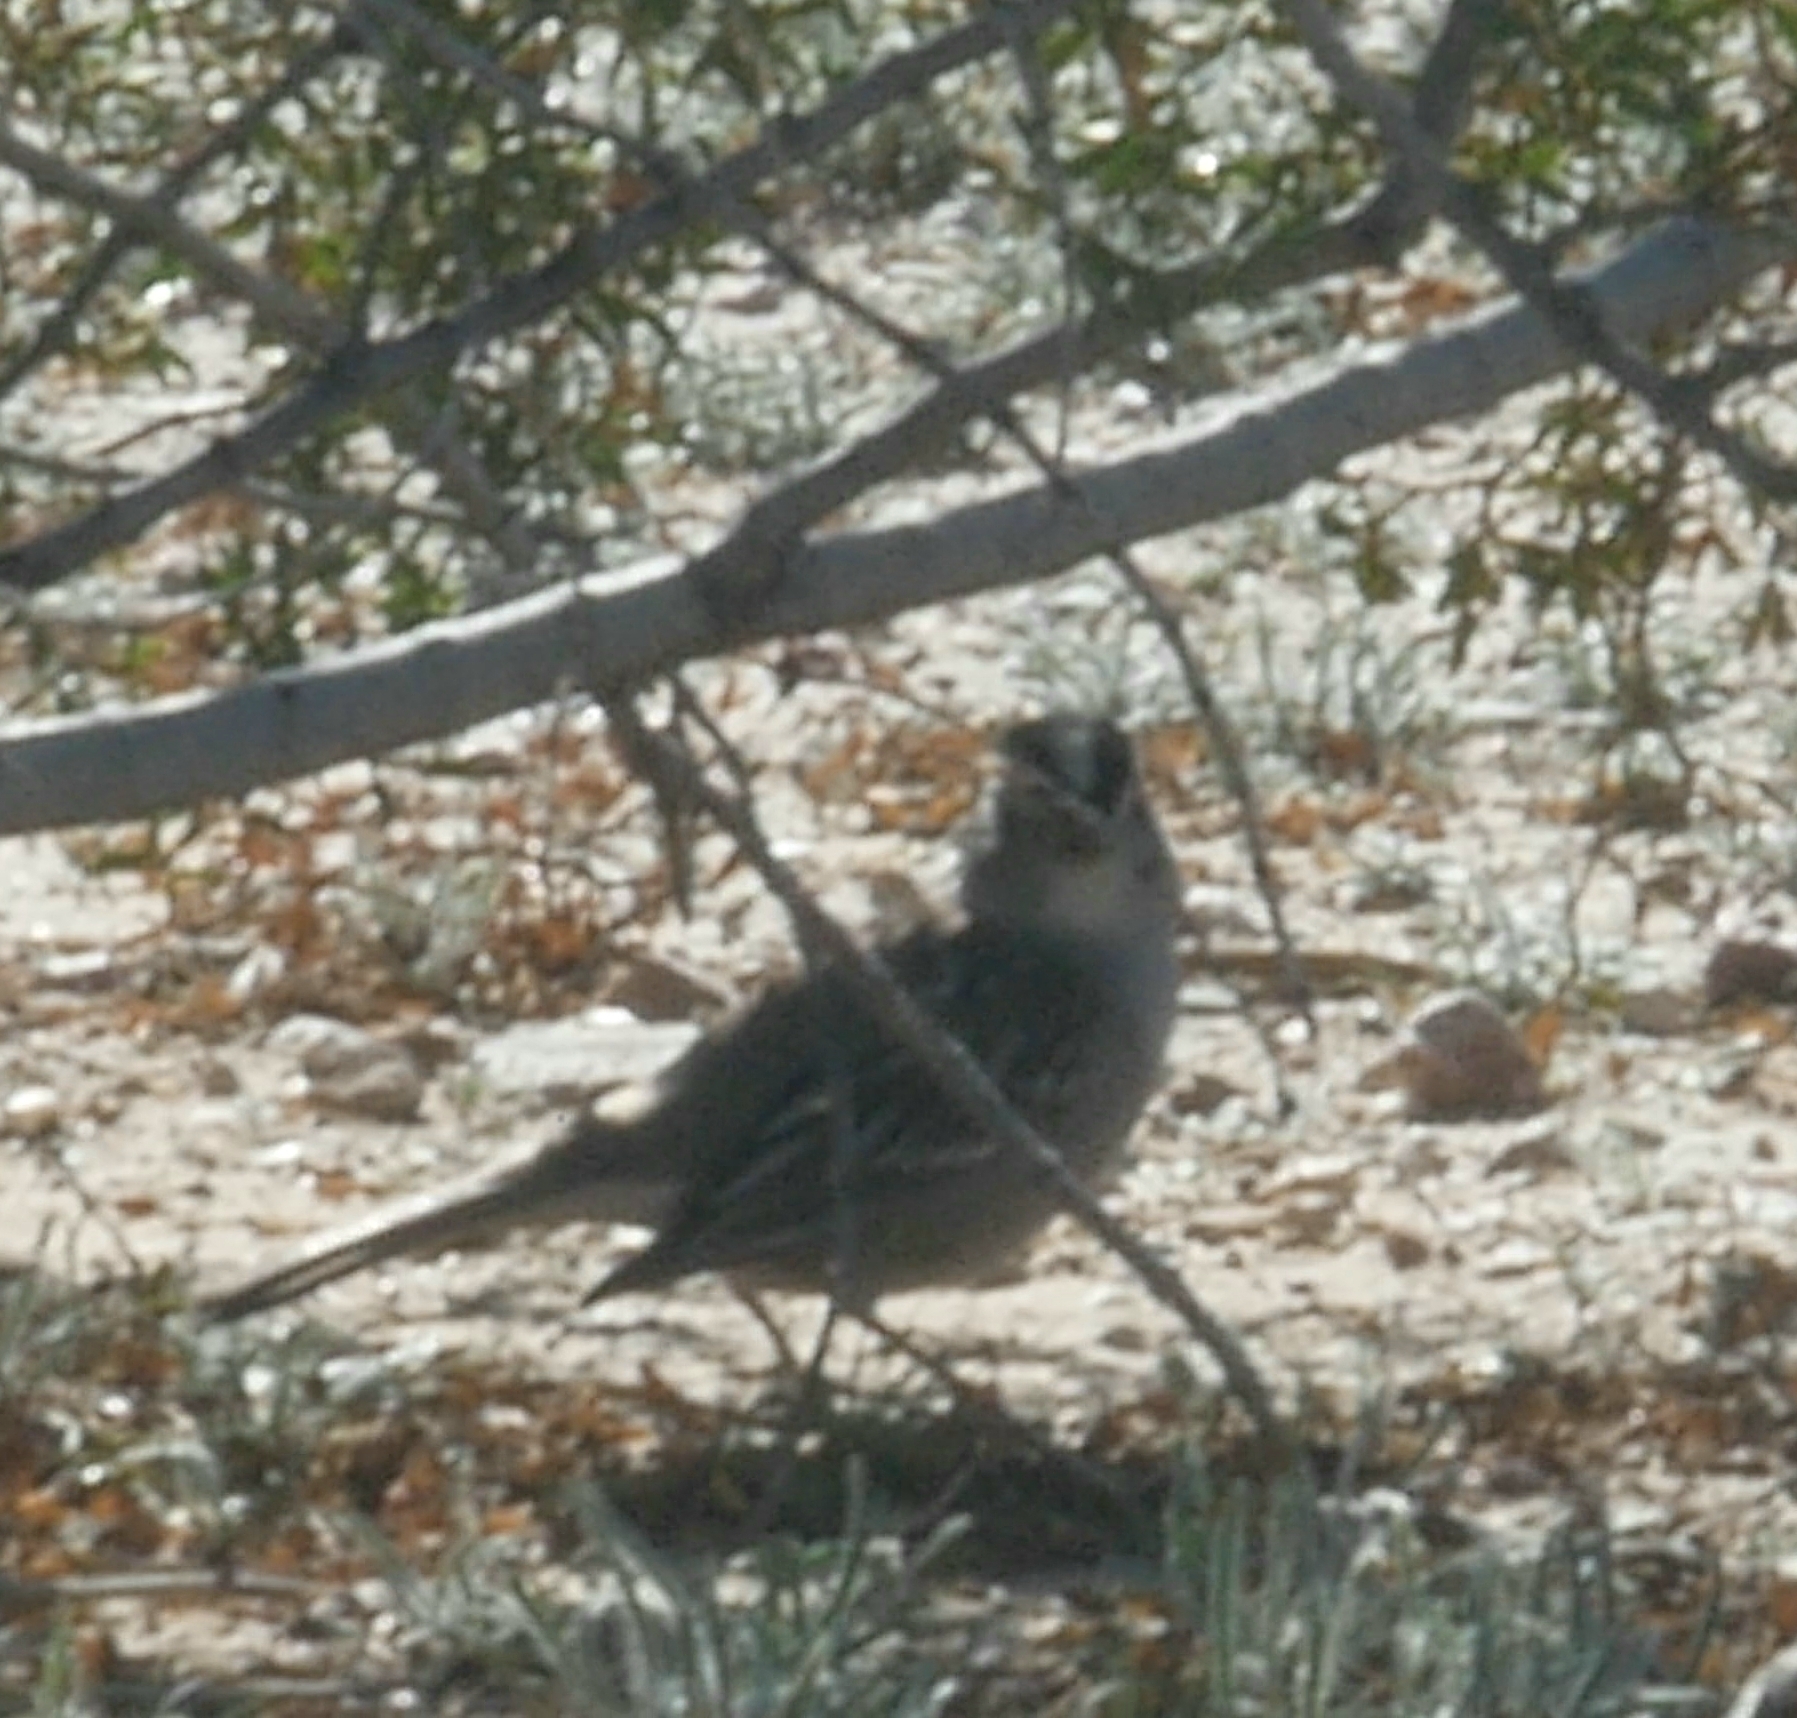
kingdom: Animalia
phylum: Chordata
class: Aves
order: Passeriformes
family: Passerellidae
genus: Zonotrichia
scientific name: Zonotrichia leucophrys
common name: White-crowned sparrow
